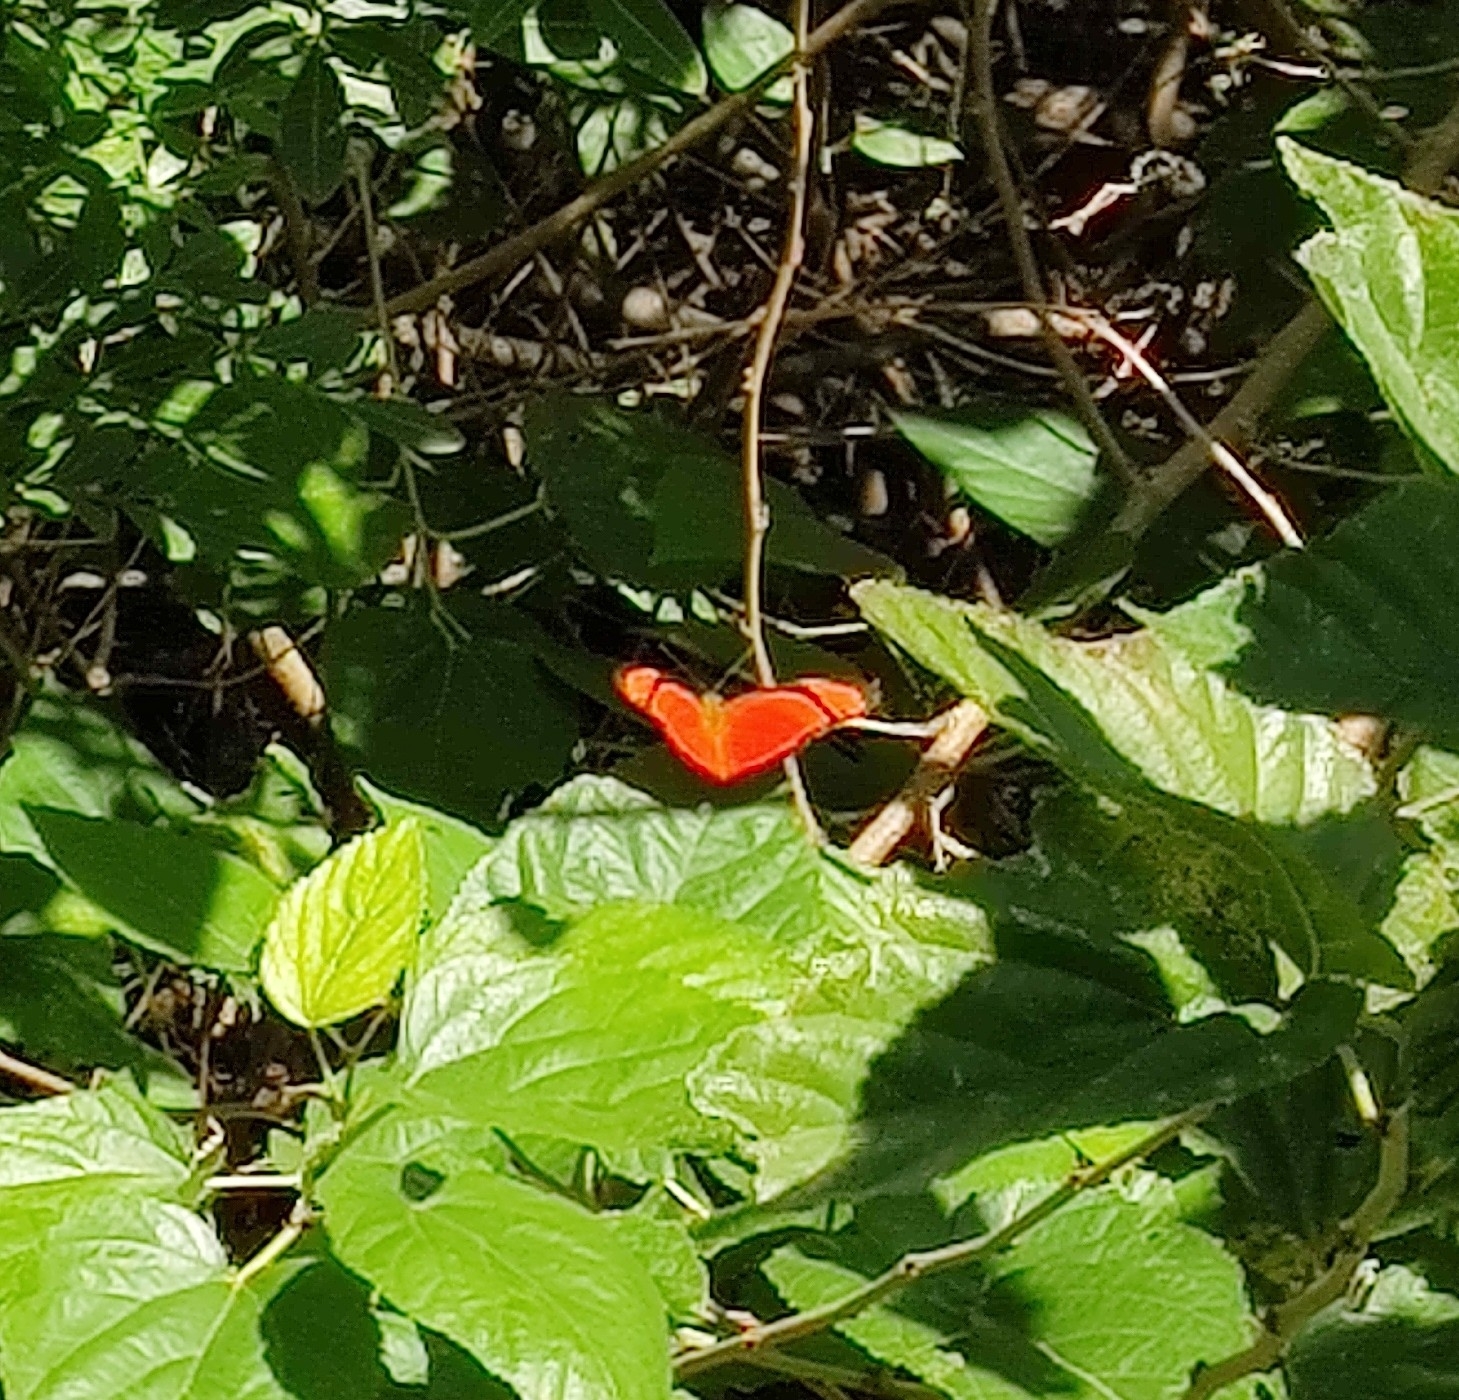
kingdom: Animalia
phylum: Arthropoda
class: Insecta
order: Lepidoptera
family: Nymphalidae
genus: Dryas
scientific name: Dryas iulia
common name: Flambeau
